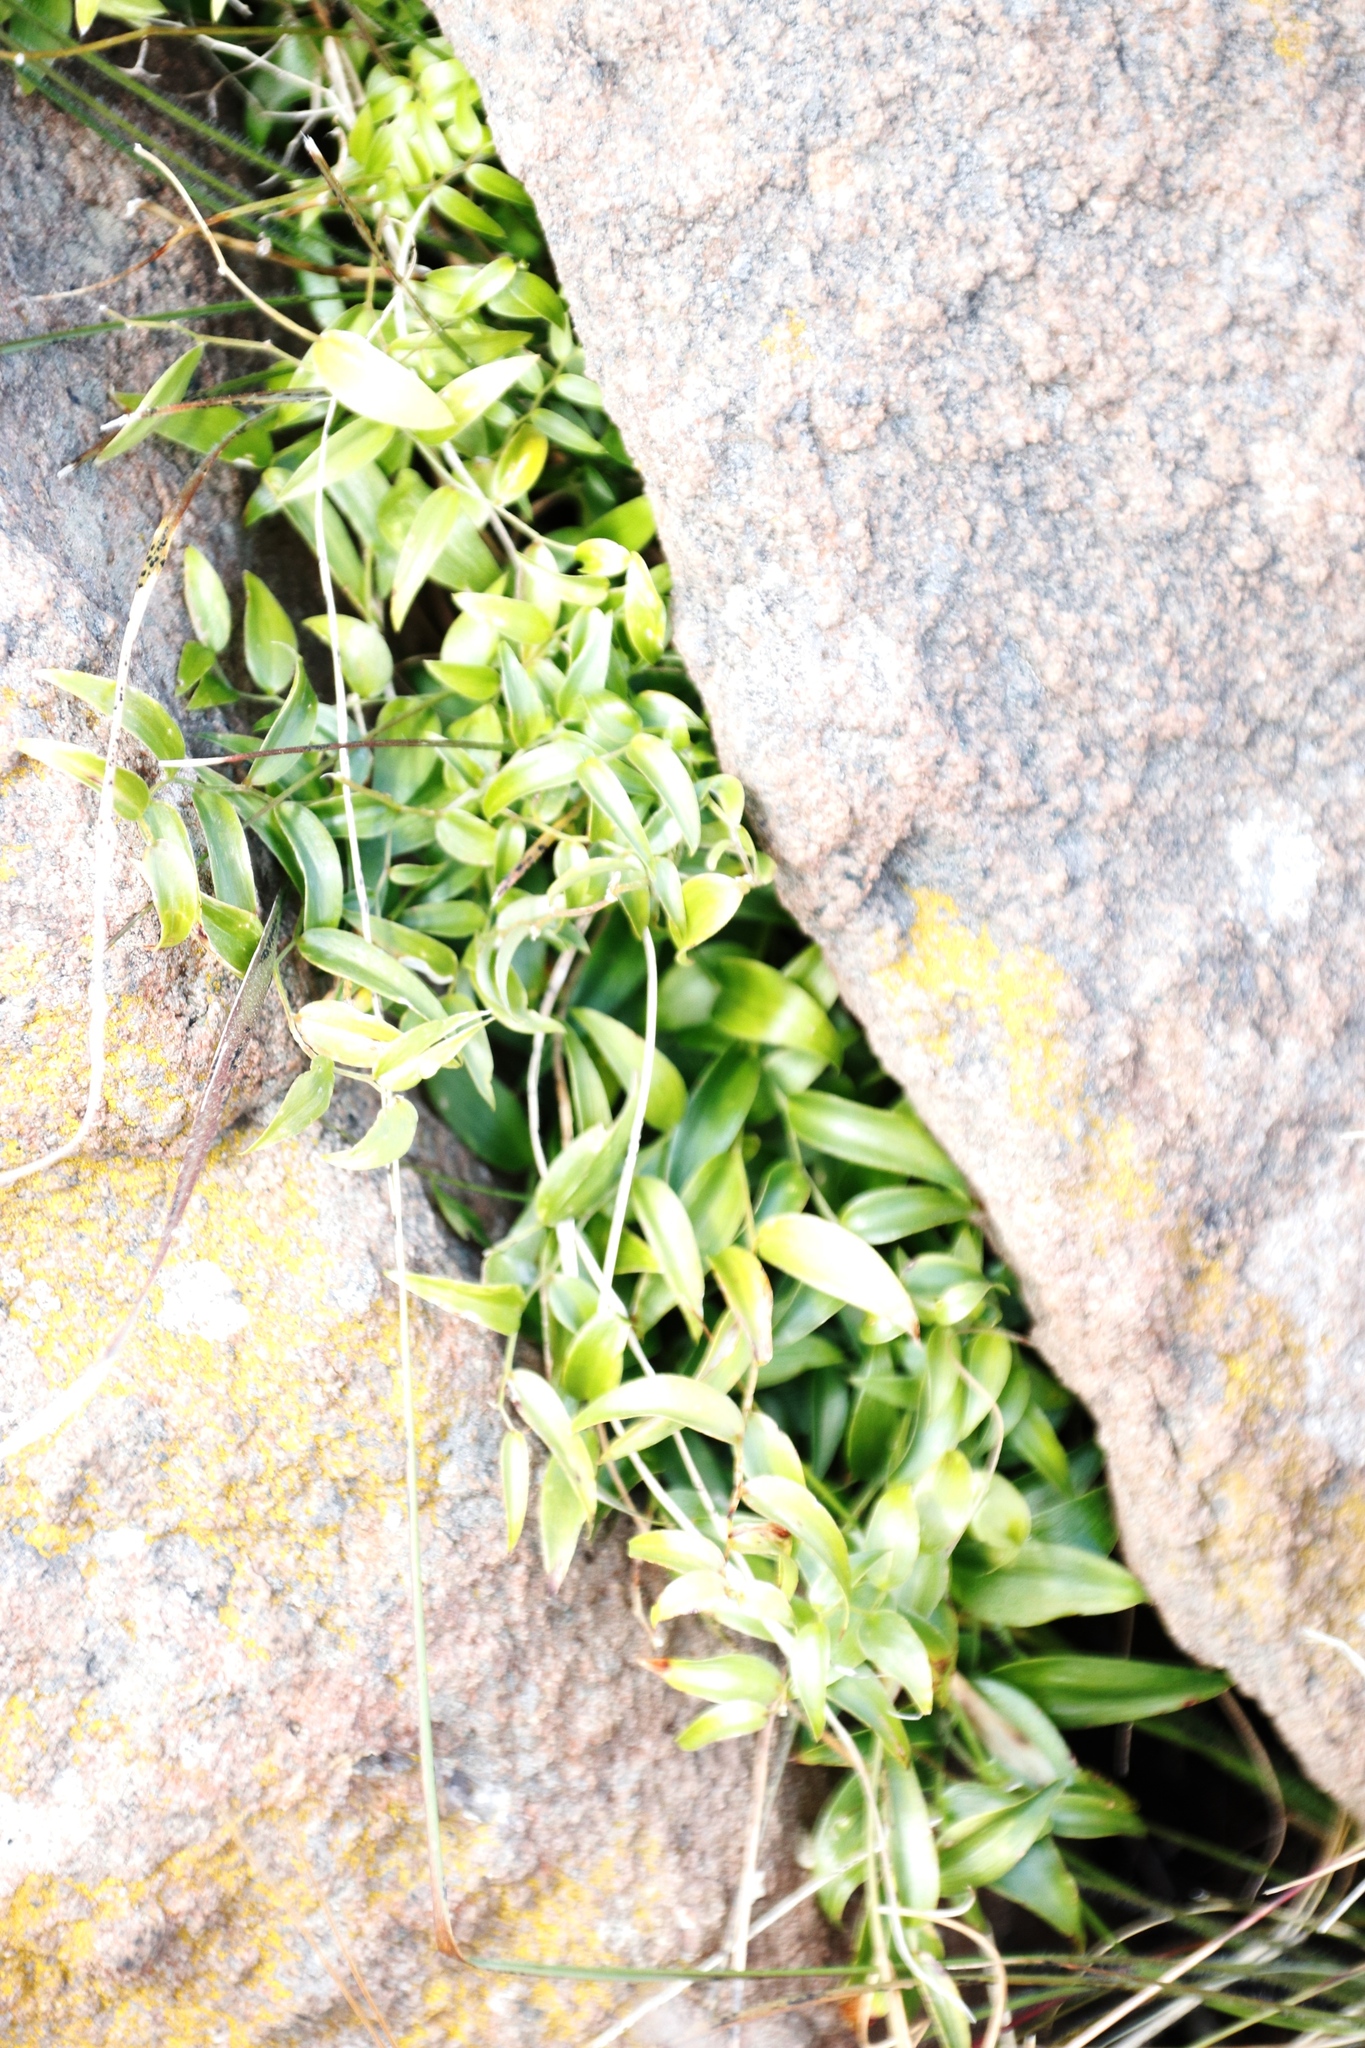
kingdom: Plantae
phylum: Tracheophyta
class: Liliopsida
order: Asparagales
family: Asparagaceae
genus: Asparagus
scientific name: Asparagus asparagoides
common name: African asparagus fern
